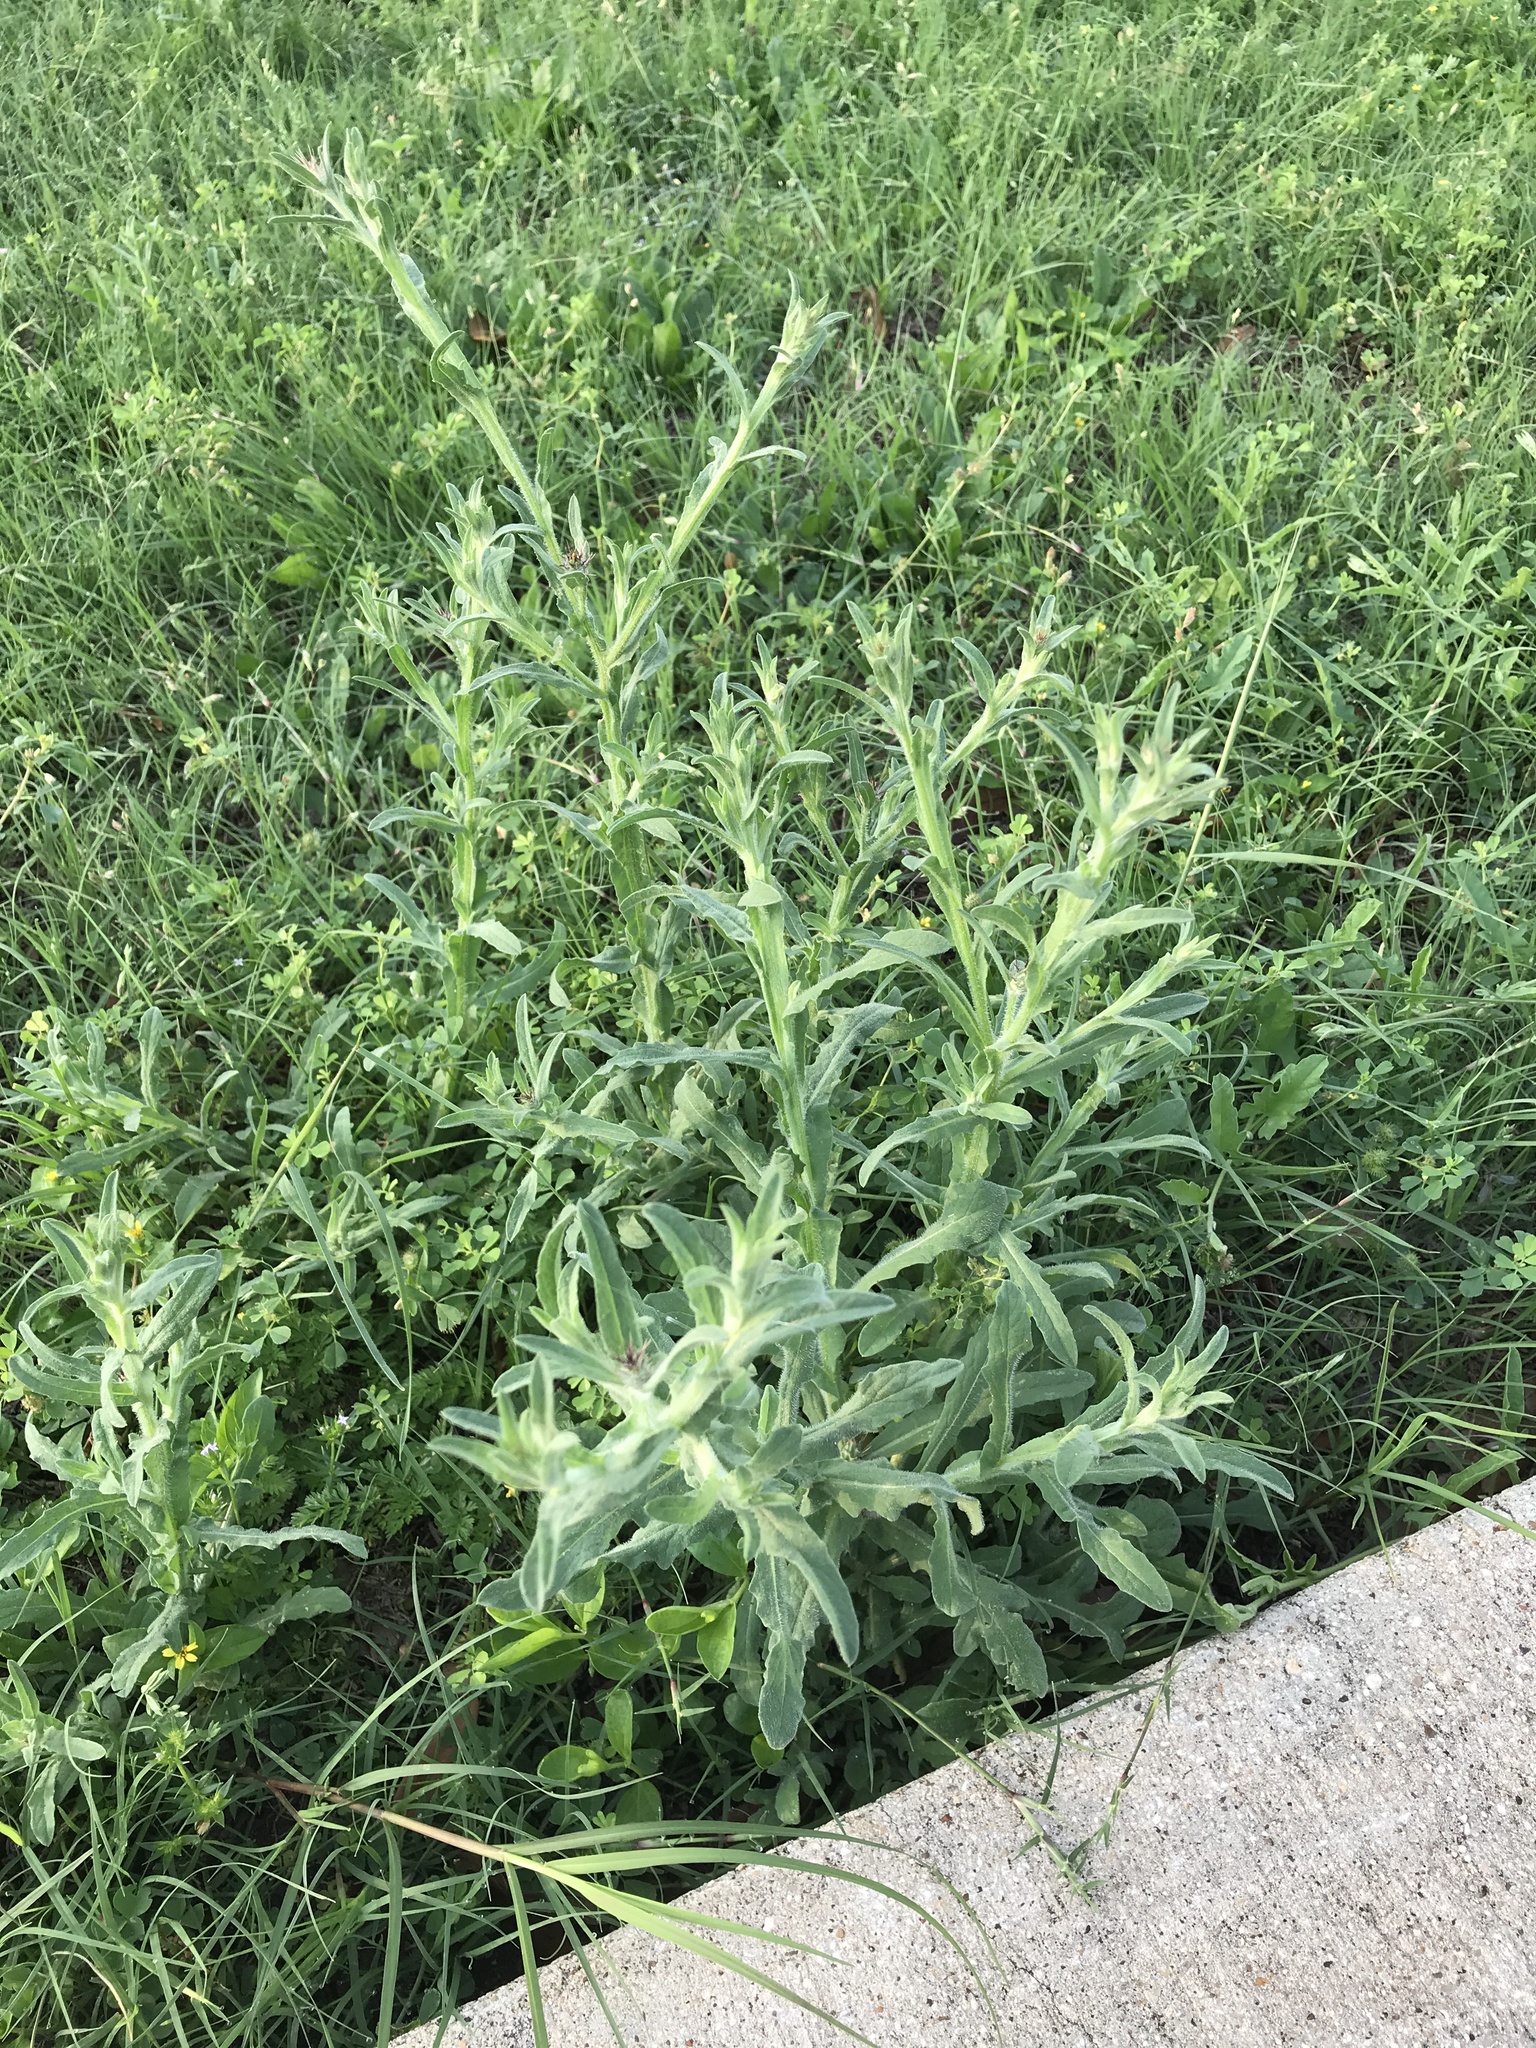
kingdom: Plantae
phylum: Tracheophyta
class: Magnoliopsida
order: Asterales
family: Asteraceae
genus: Centaurea
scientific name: Centaurea melitensis
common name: Maltese star-thistle
